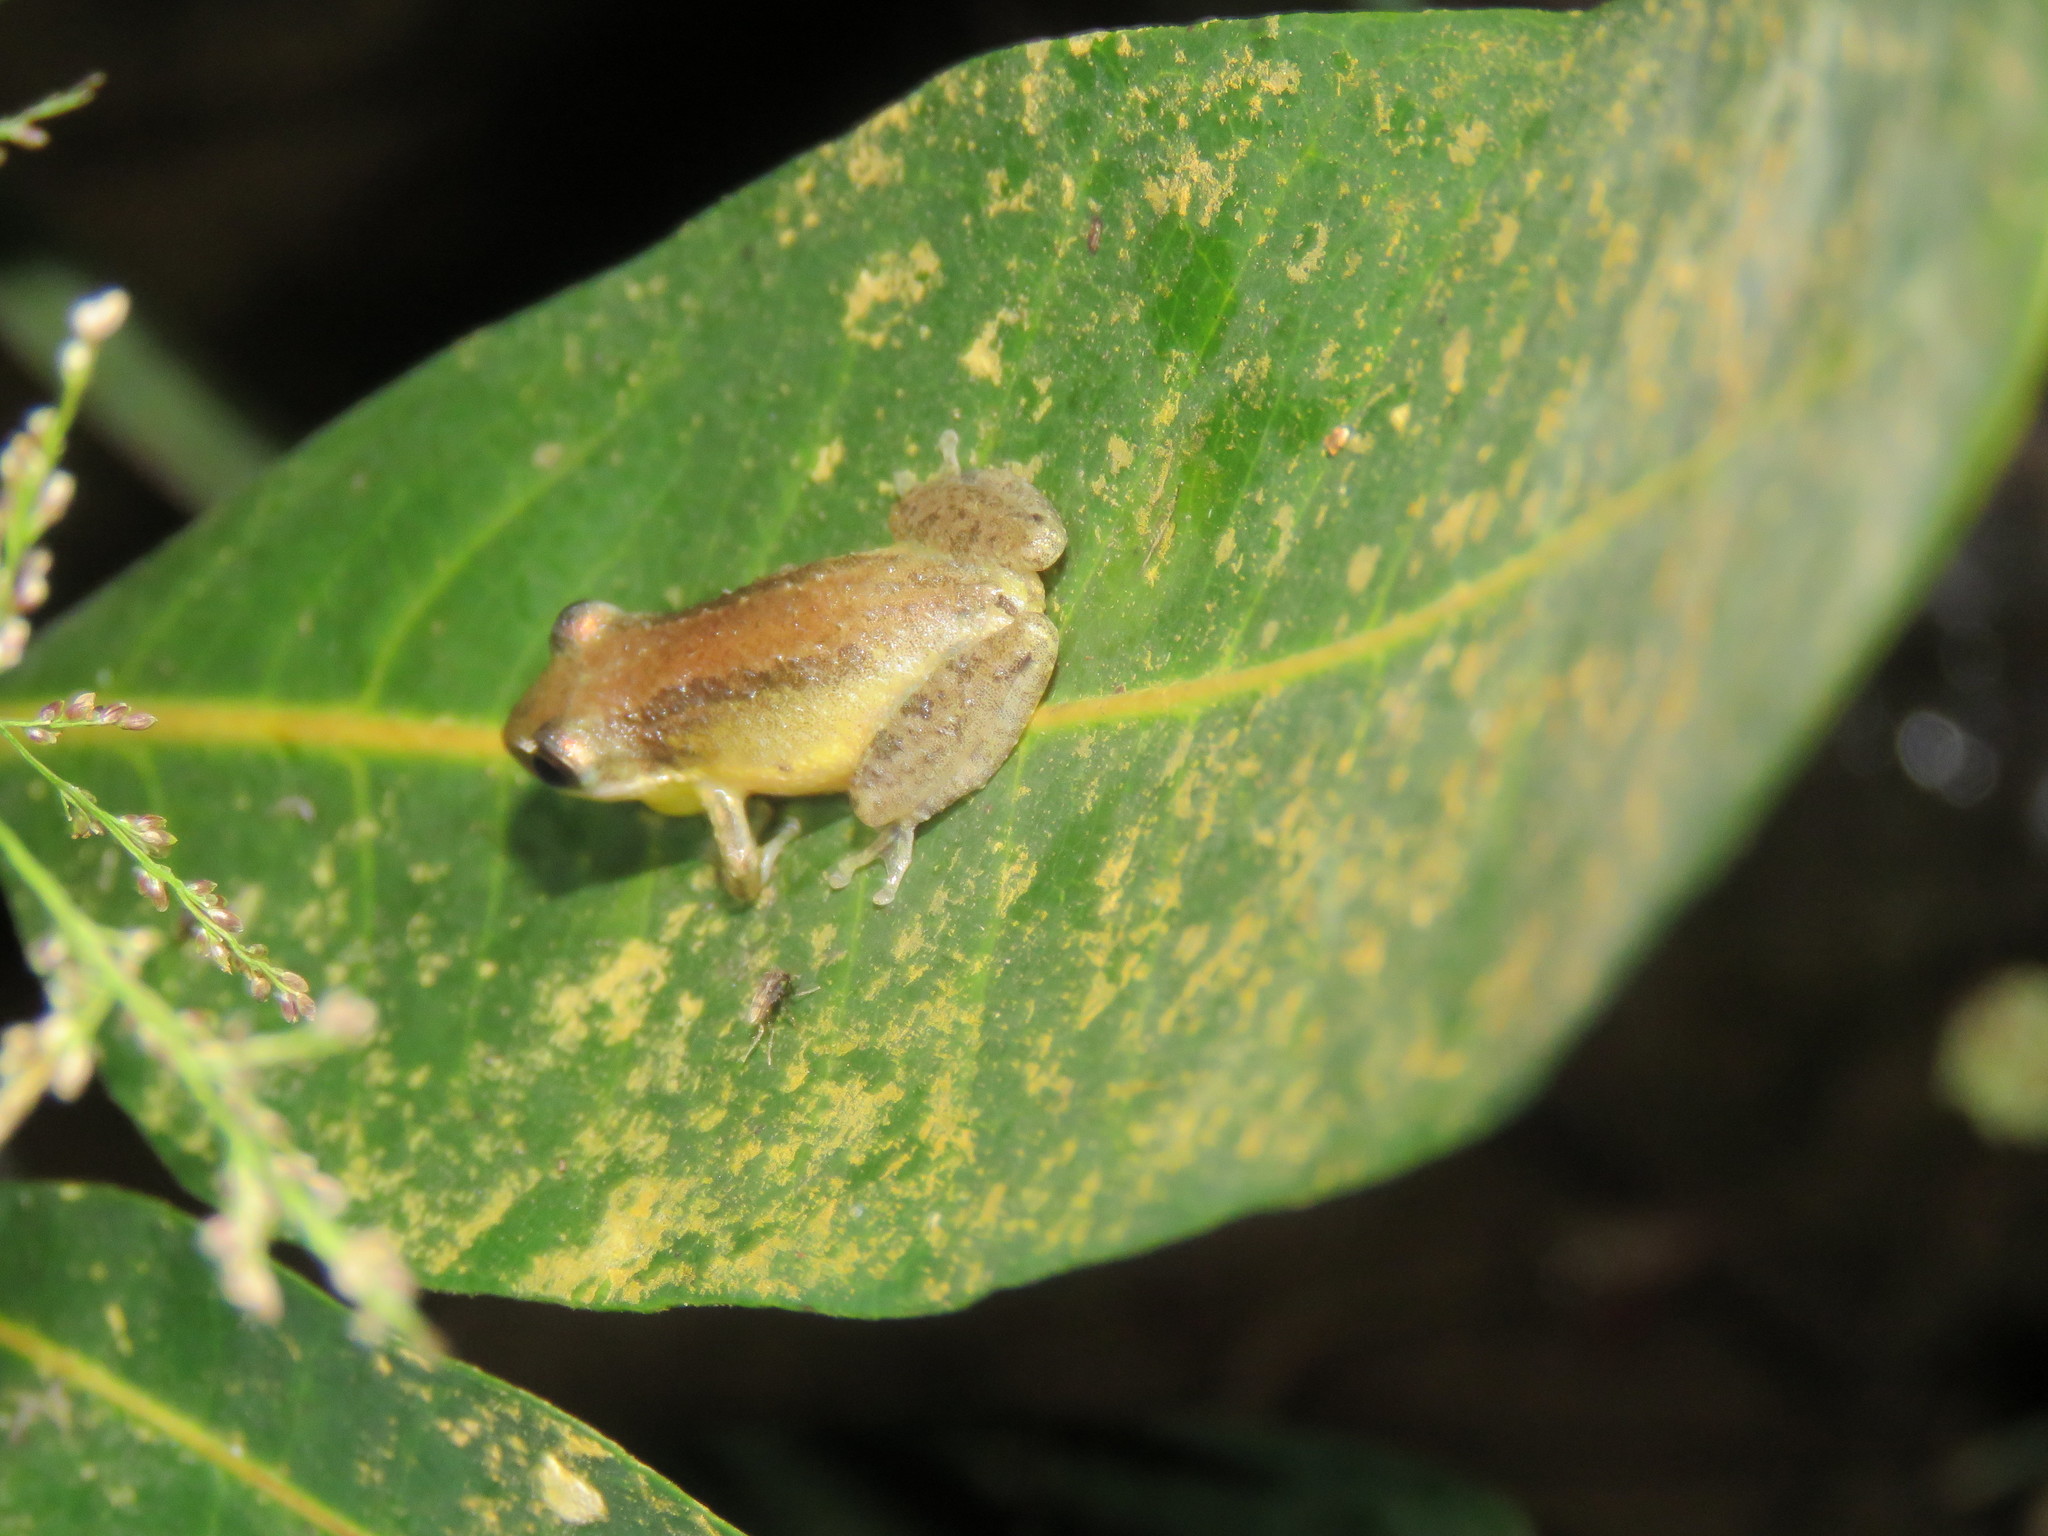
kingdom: Animalia
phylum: Chordata
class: Amphibia
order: Anura
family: Hylidae
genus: Scinax
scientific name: Scinax fuscomarginatus
